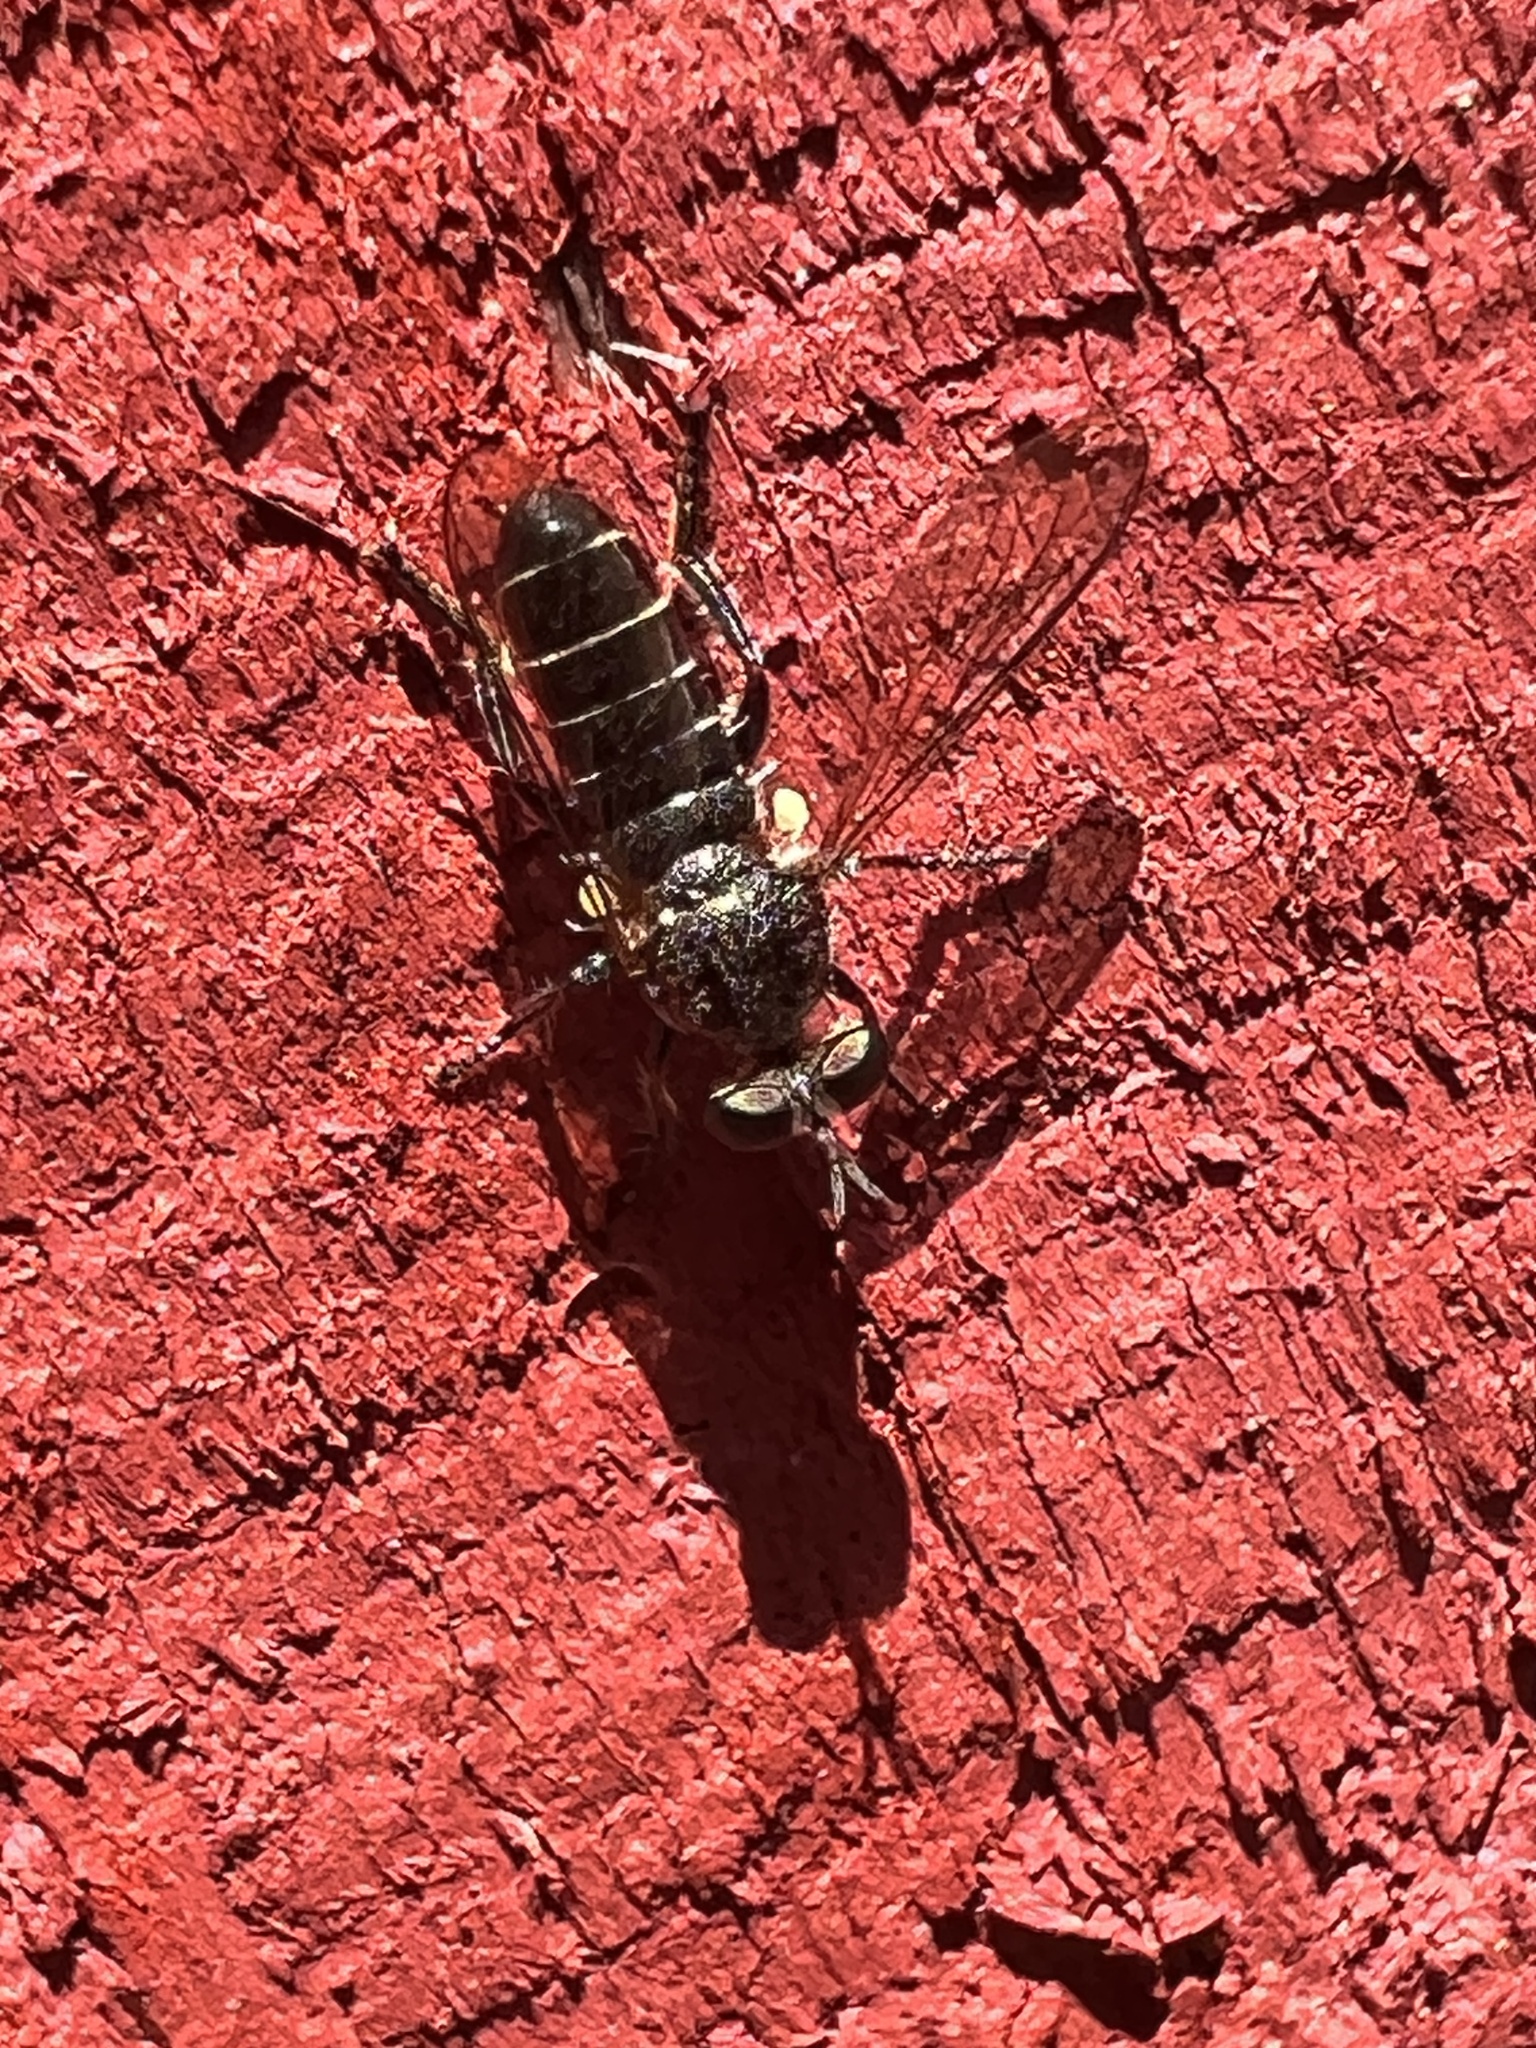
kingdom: Animalia
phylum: Arthropoda
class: Insecta
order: Diptera
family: Asilidae
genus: Atomosia
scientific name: Atomosia puella
